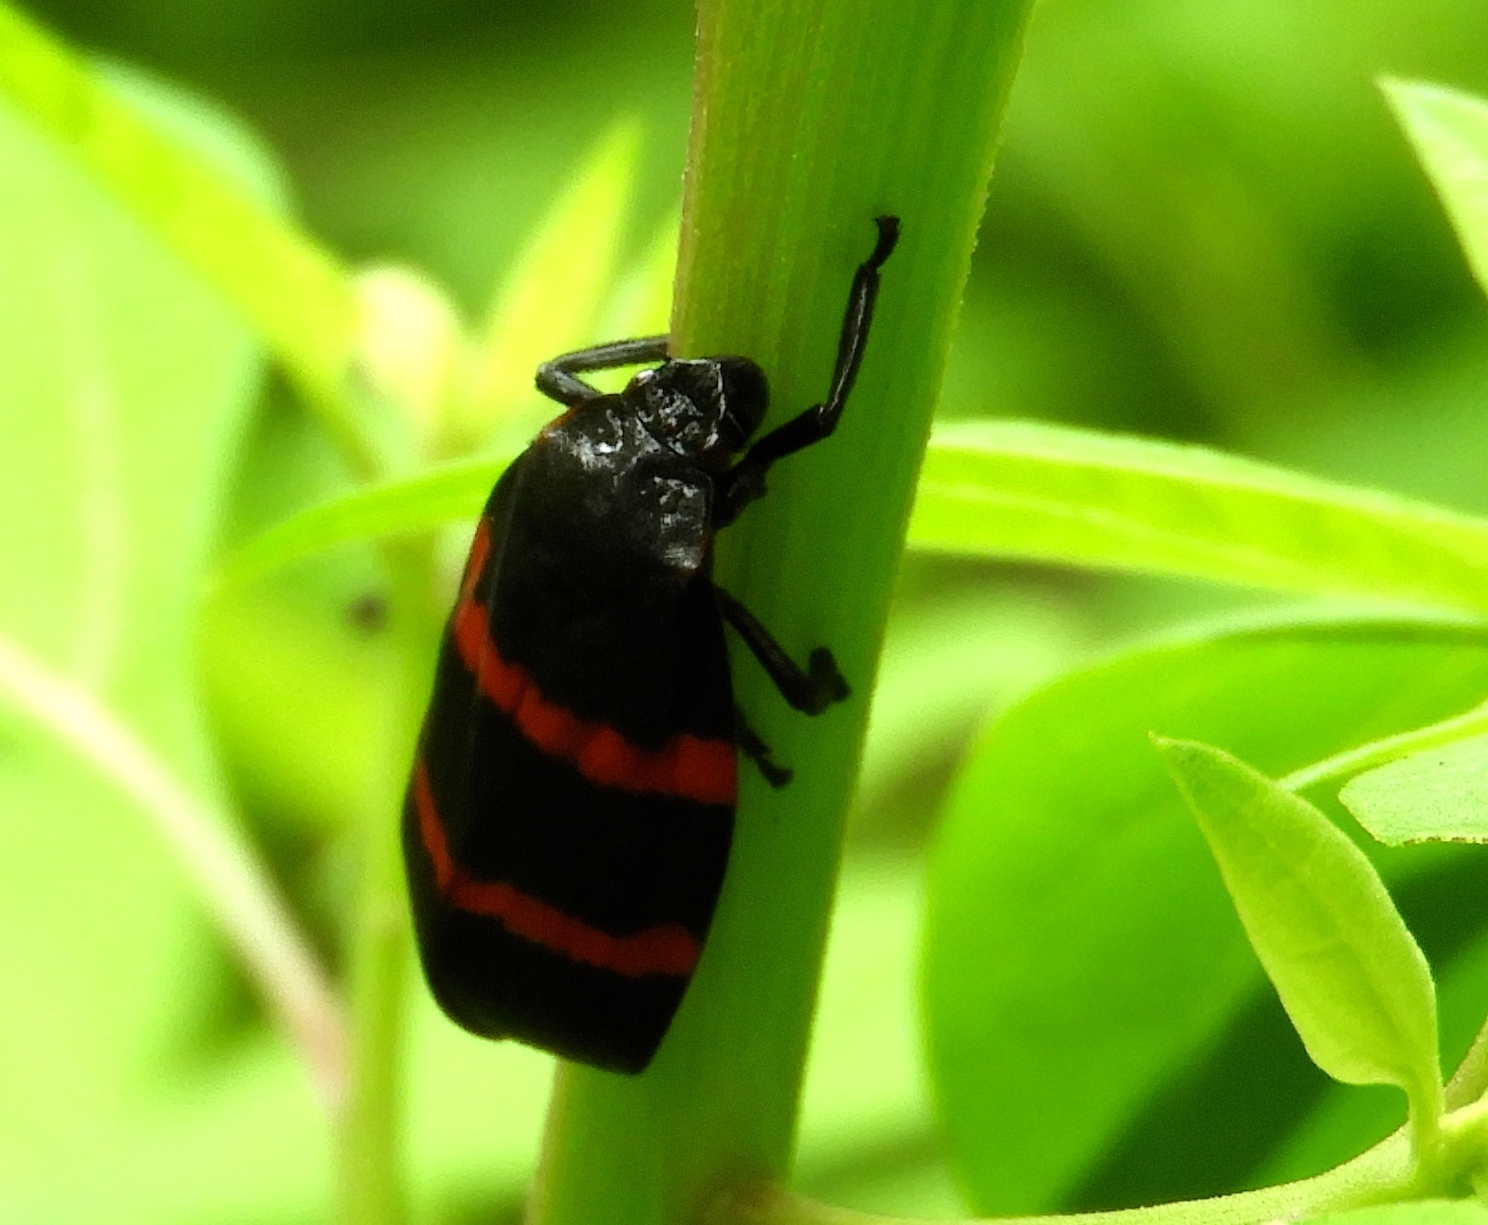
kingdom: Animalia
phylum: Arthropoda
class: Insecta
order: Hemiptera
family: Cercopidae
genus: Huaina
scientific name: Huaina inca
